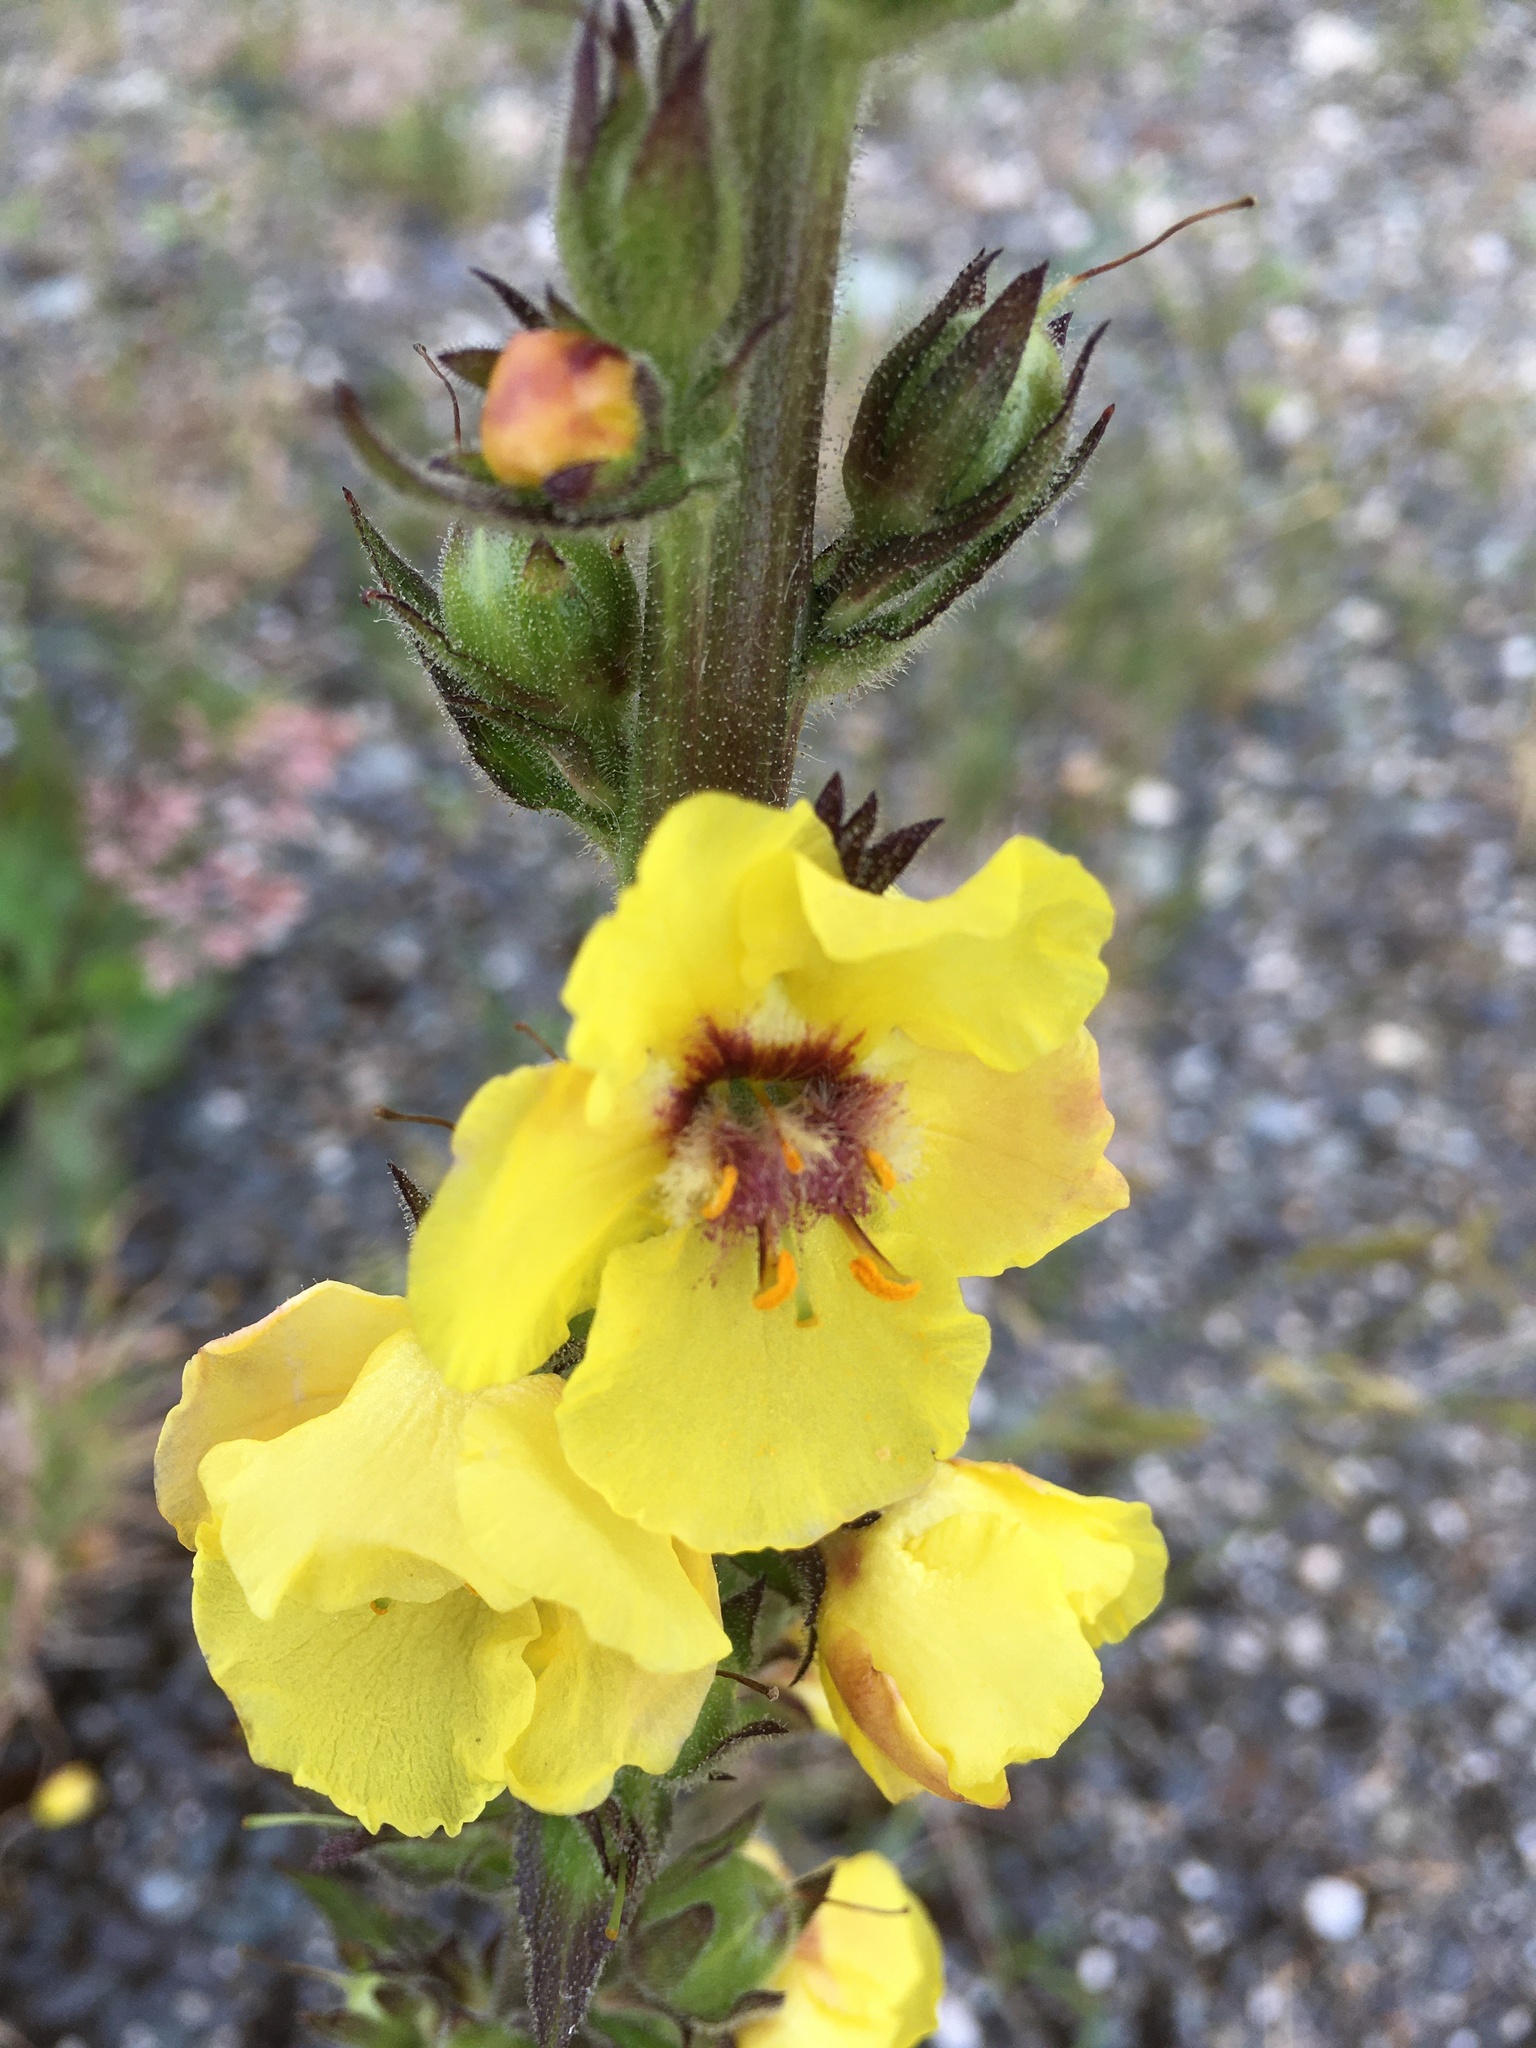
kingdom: Plantae
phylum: Tracheophyta
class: Magnoliopsida
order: Lamiales
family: Scrophulariaceae
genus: Verbascum
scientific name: Verbascum virgatum
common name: Twiggy mullein
